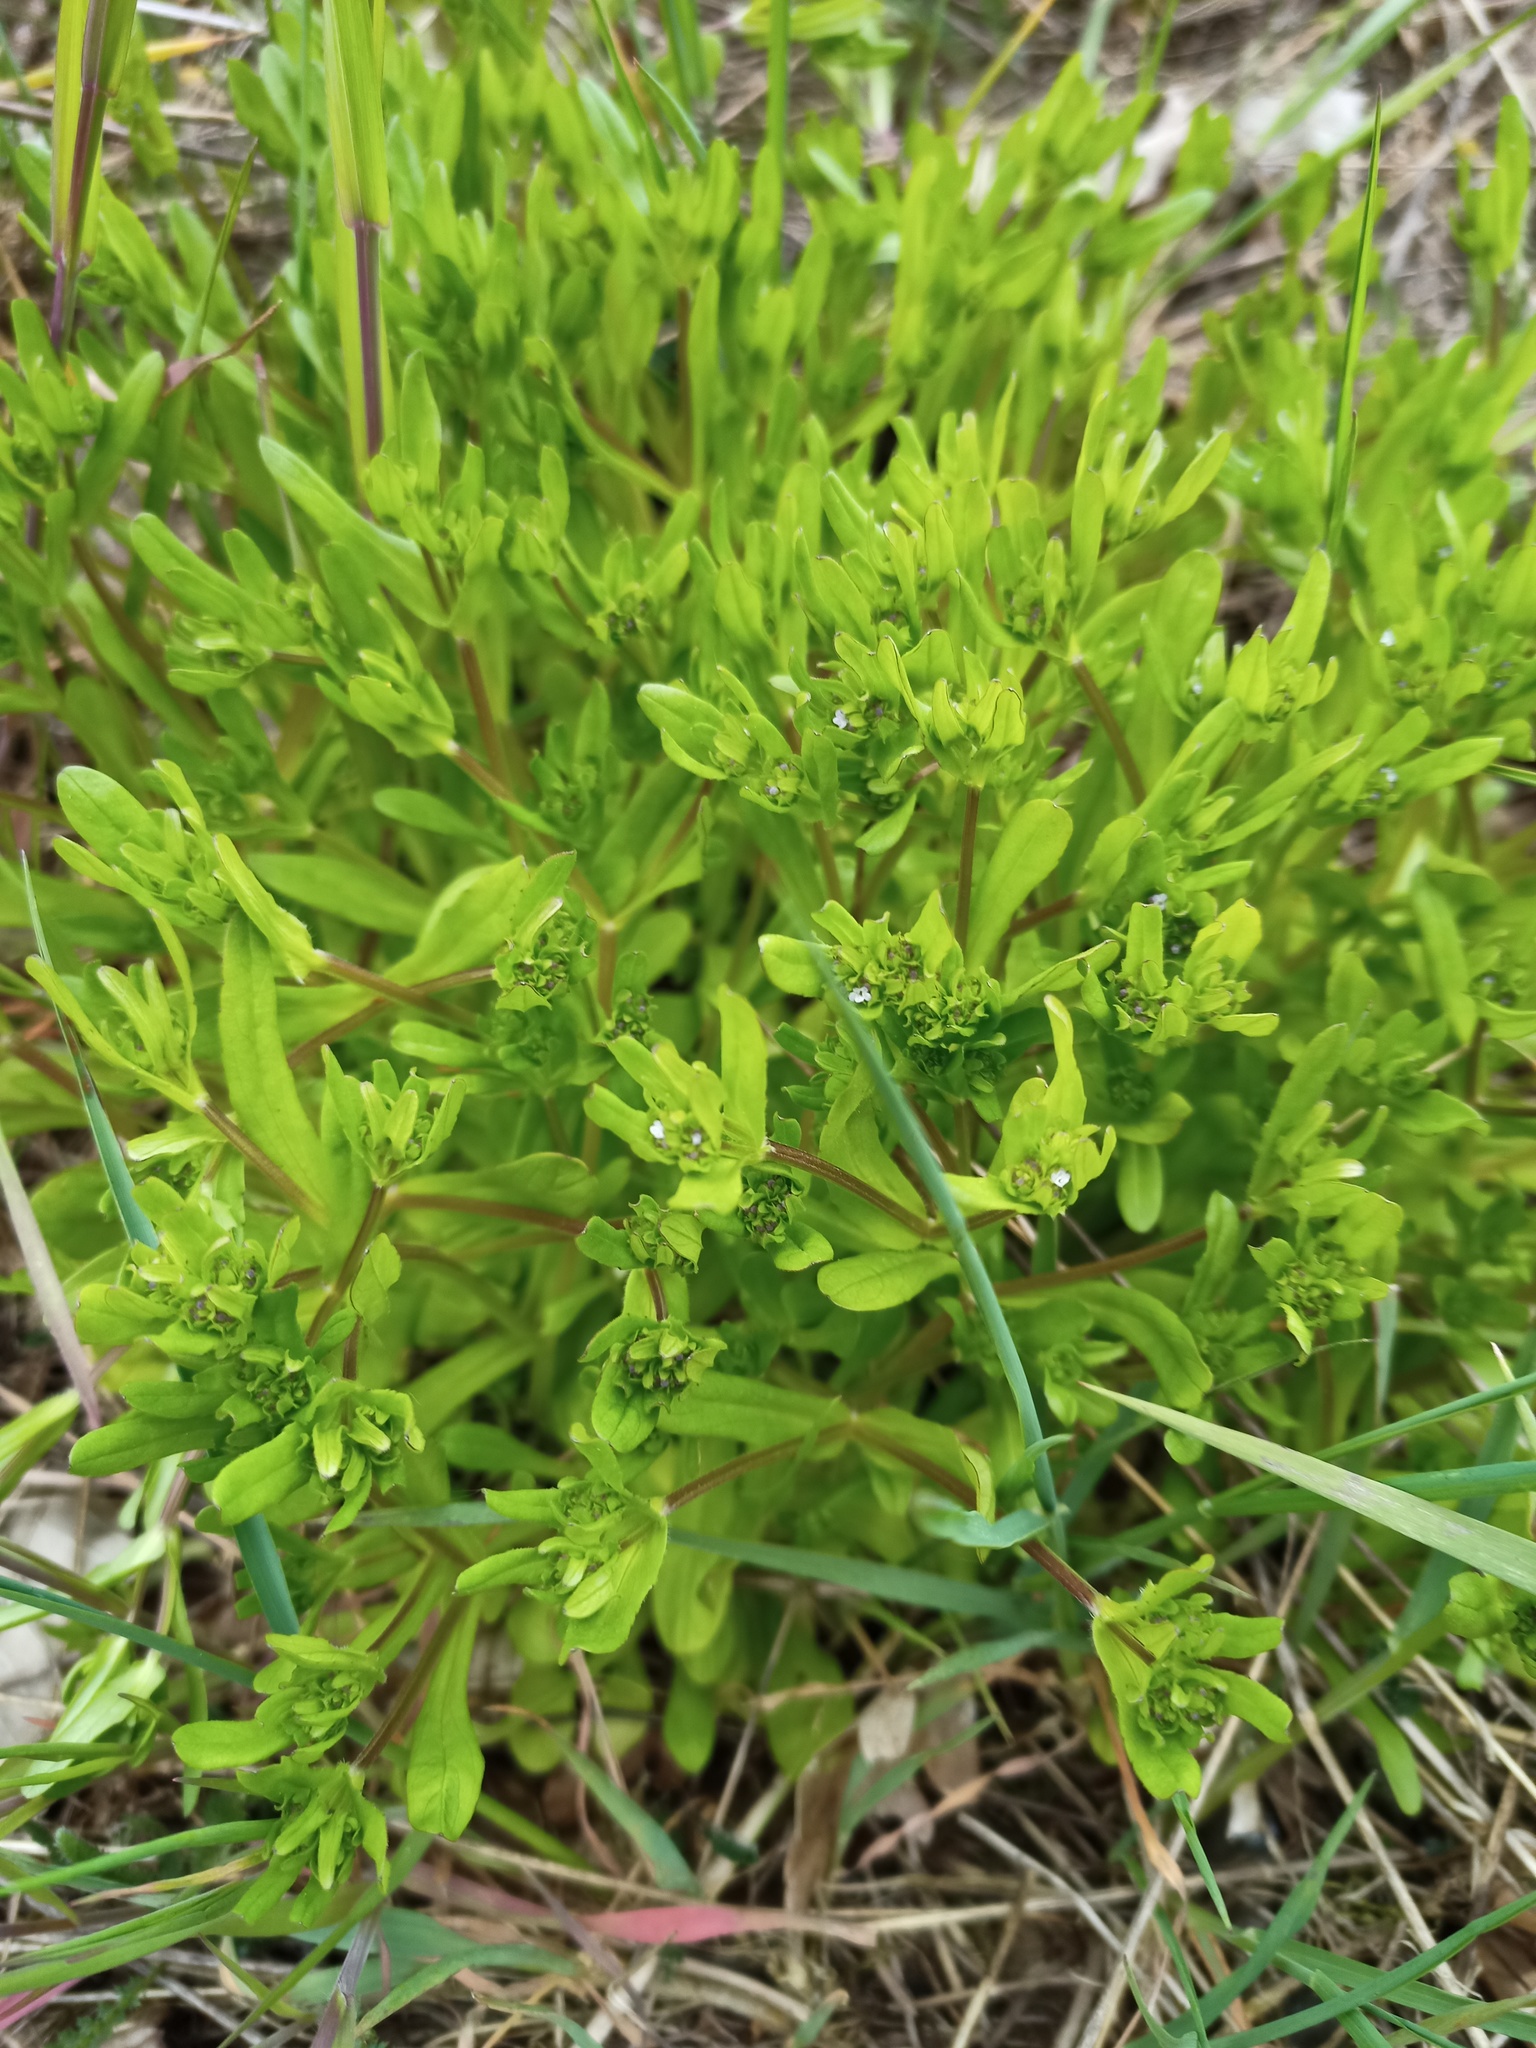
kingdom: Plantae
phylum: Tracheophyta
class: Magnoliopsida
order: Dipsacales
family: Caprifoliaceae
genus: Valerianella
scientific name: Valerianella locusta
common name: Common cornsalad
